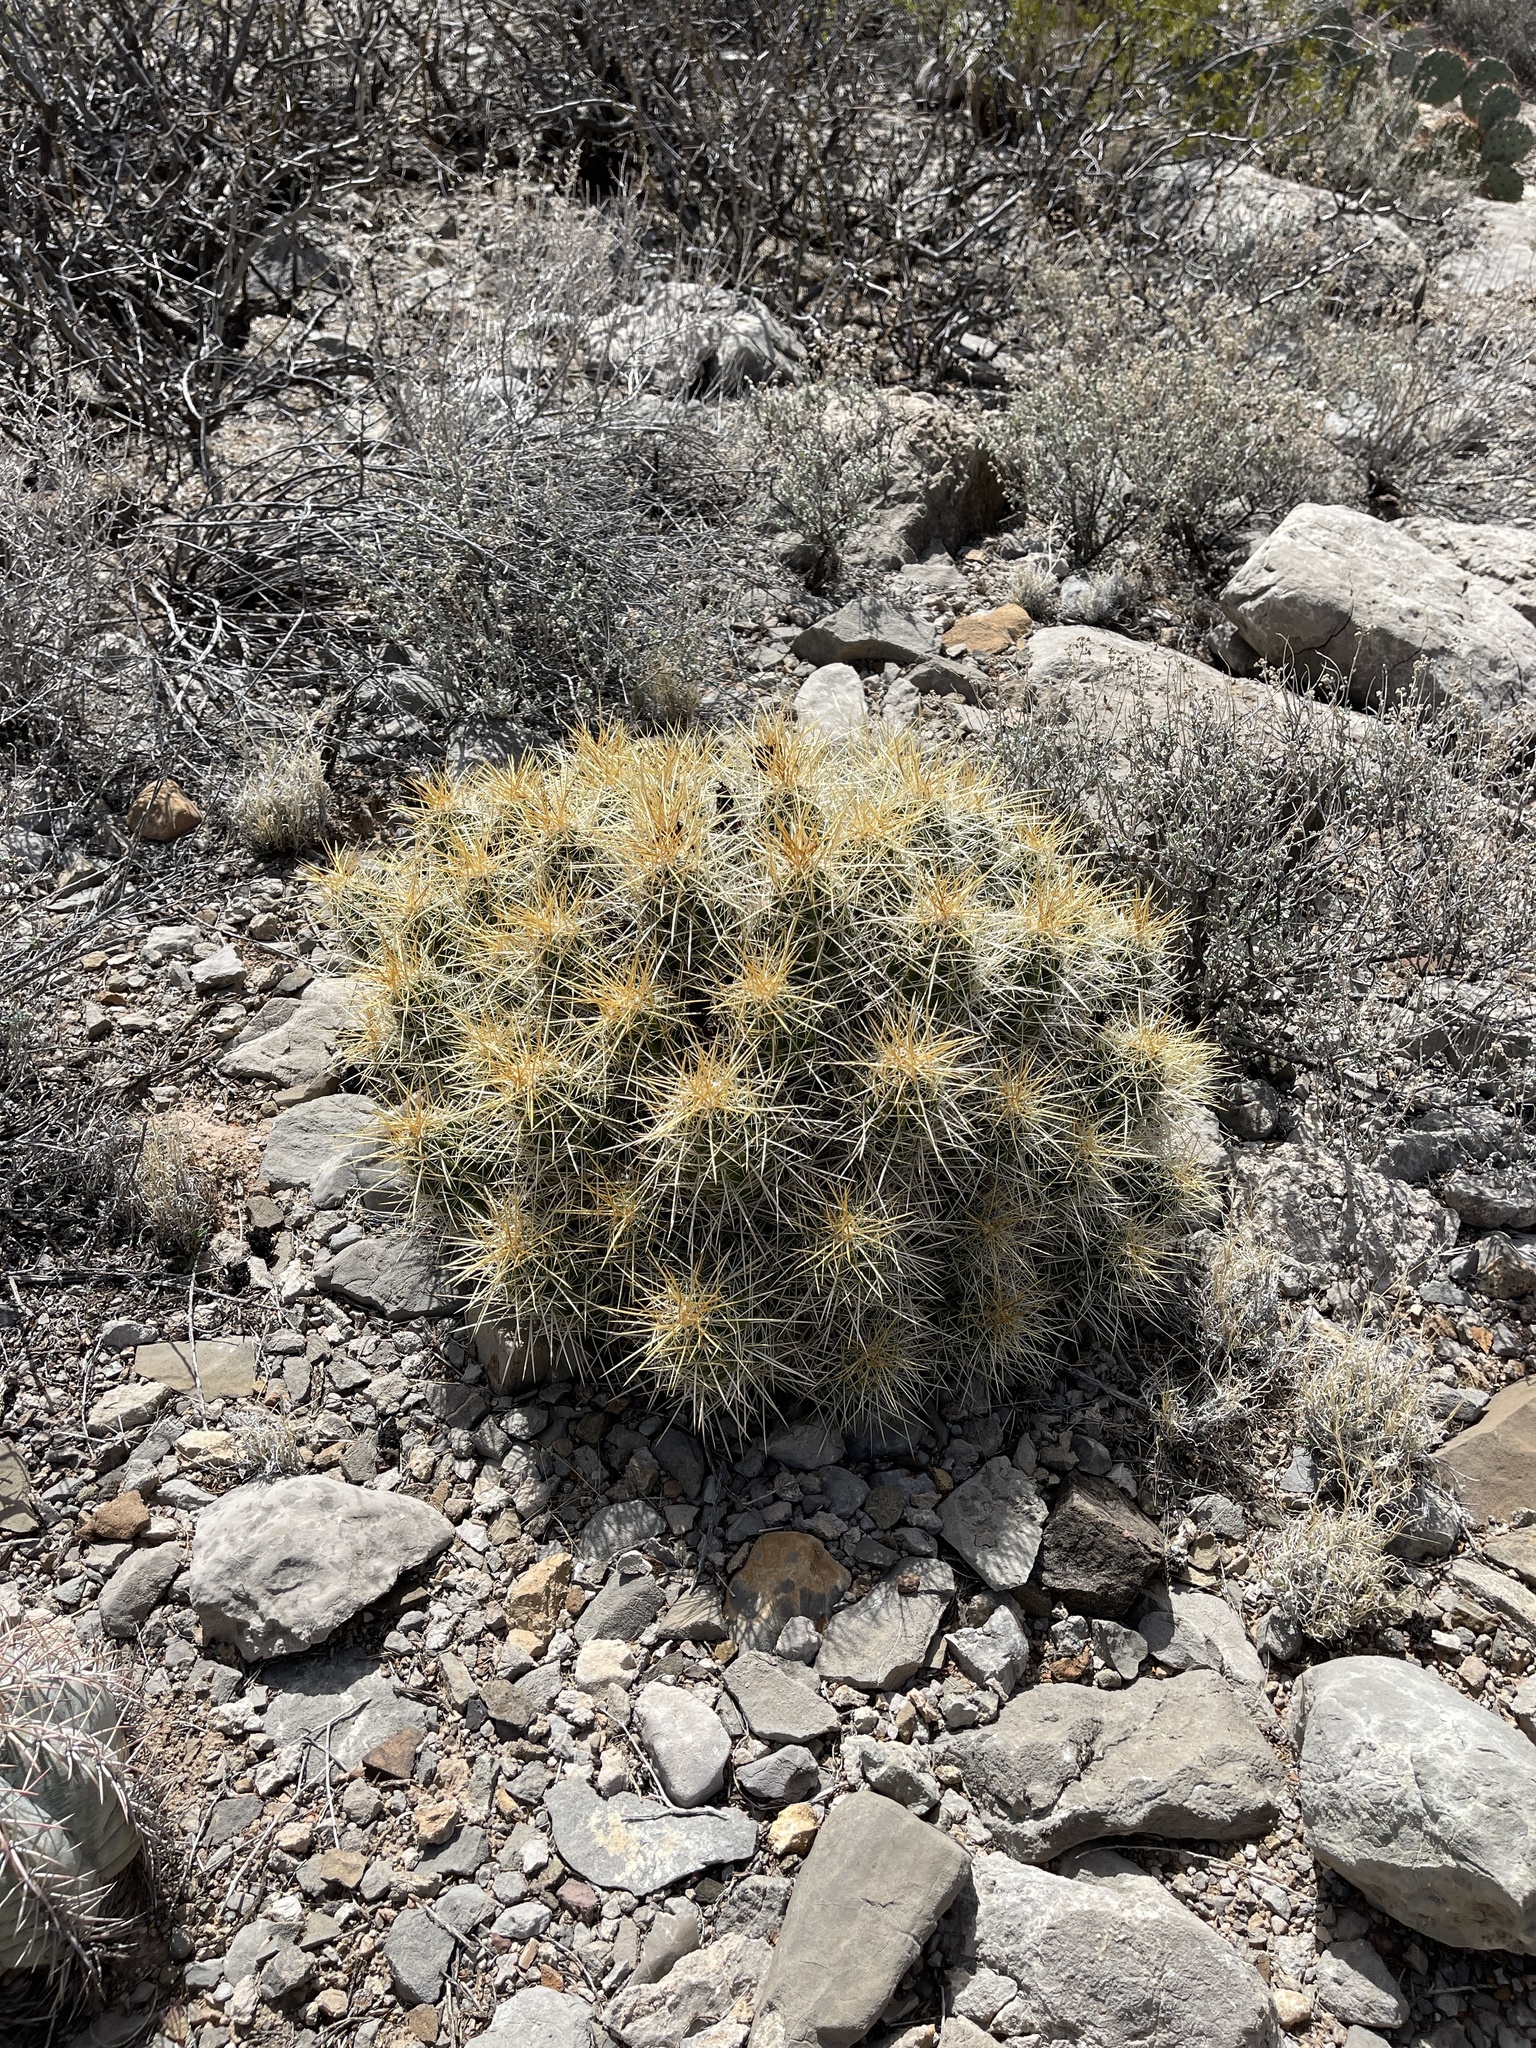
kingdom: Plantae
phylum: Tracheophyta
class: Magnoliopsida
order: Caryophyllales
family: Cactaceae
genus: Echinocereus
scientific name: Echinocereus stramineus
